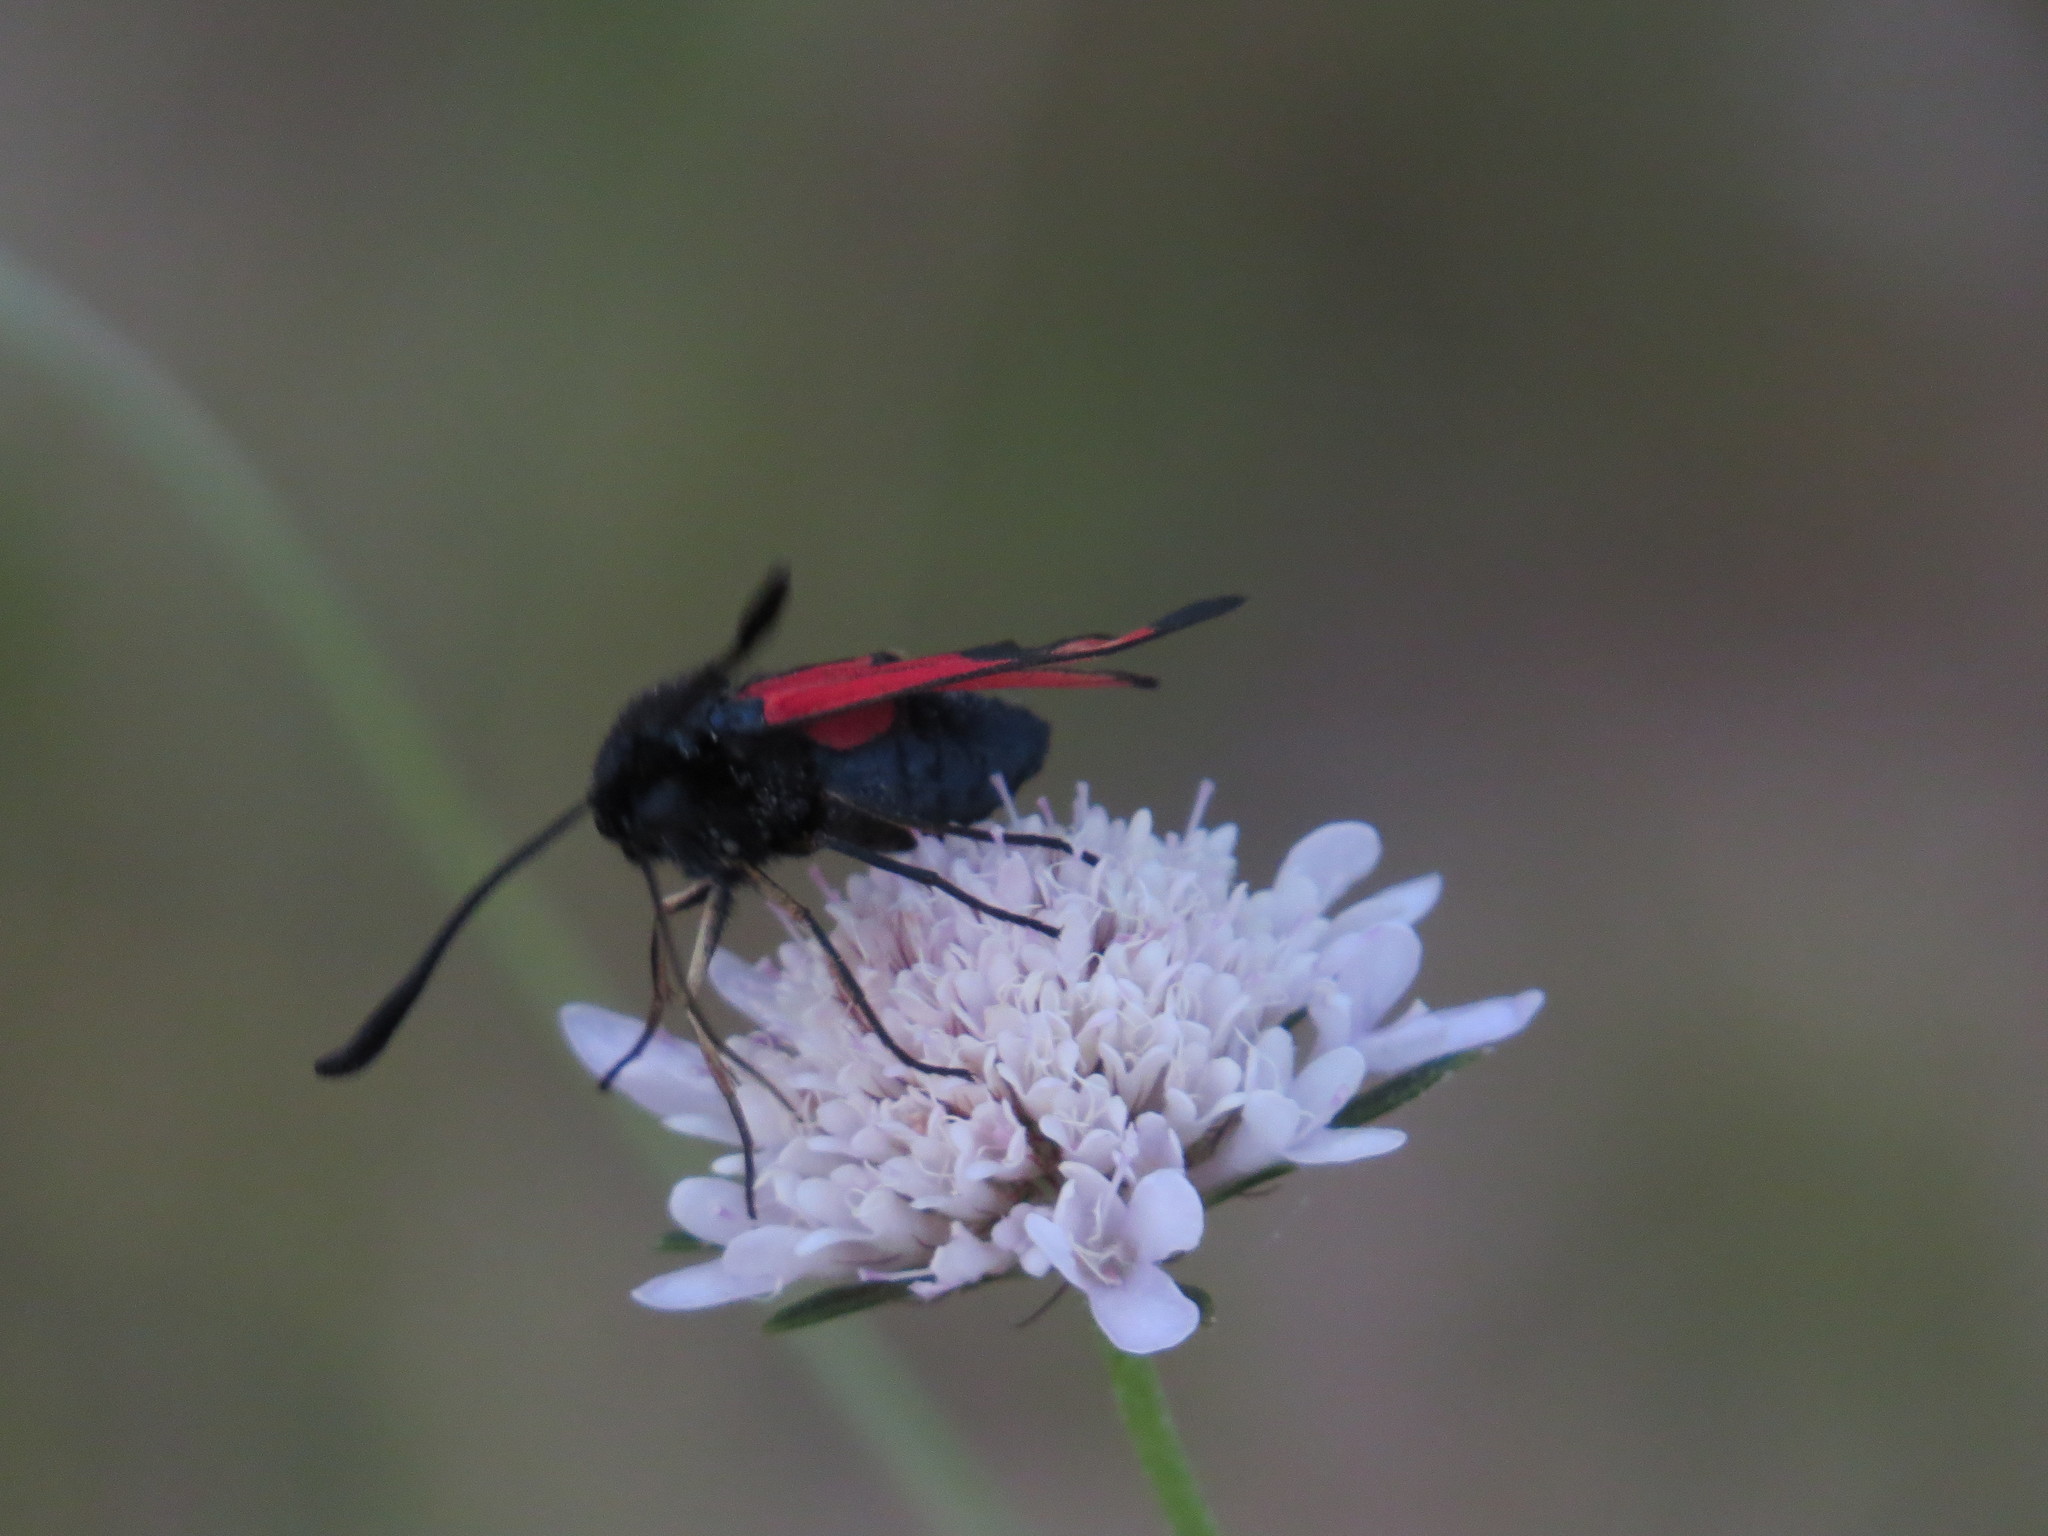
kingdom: Animalia
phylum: Arthropoda
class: Insecta
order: Lepidoptera
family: Zygaenidae
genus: Zygaena
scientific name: Zygaena erythrus
